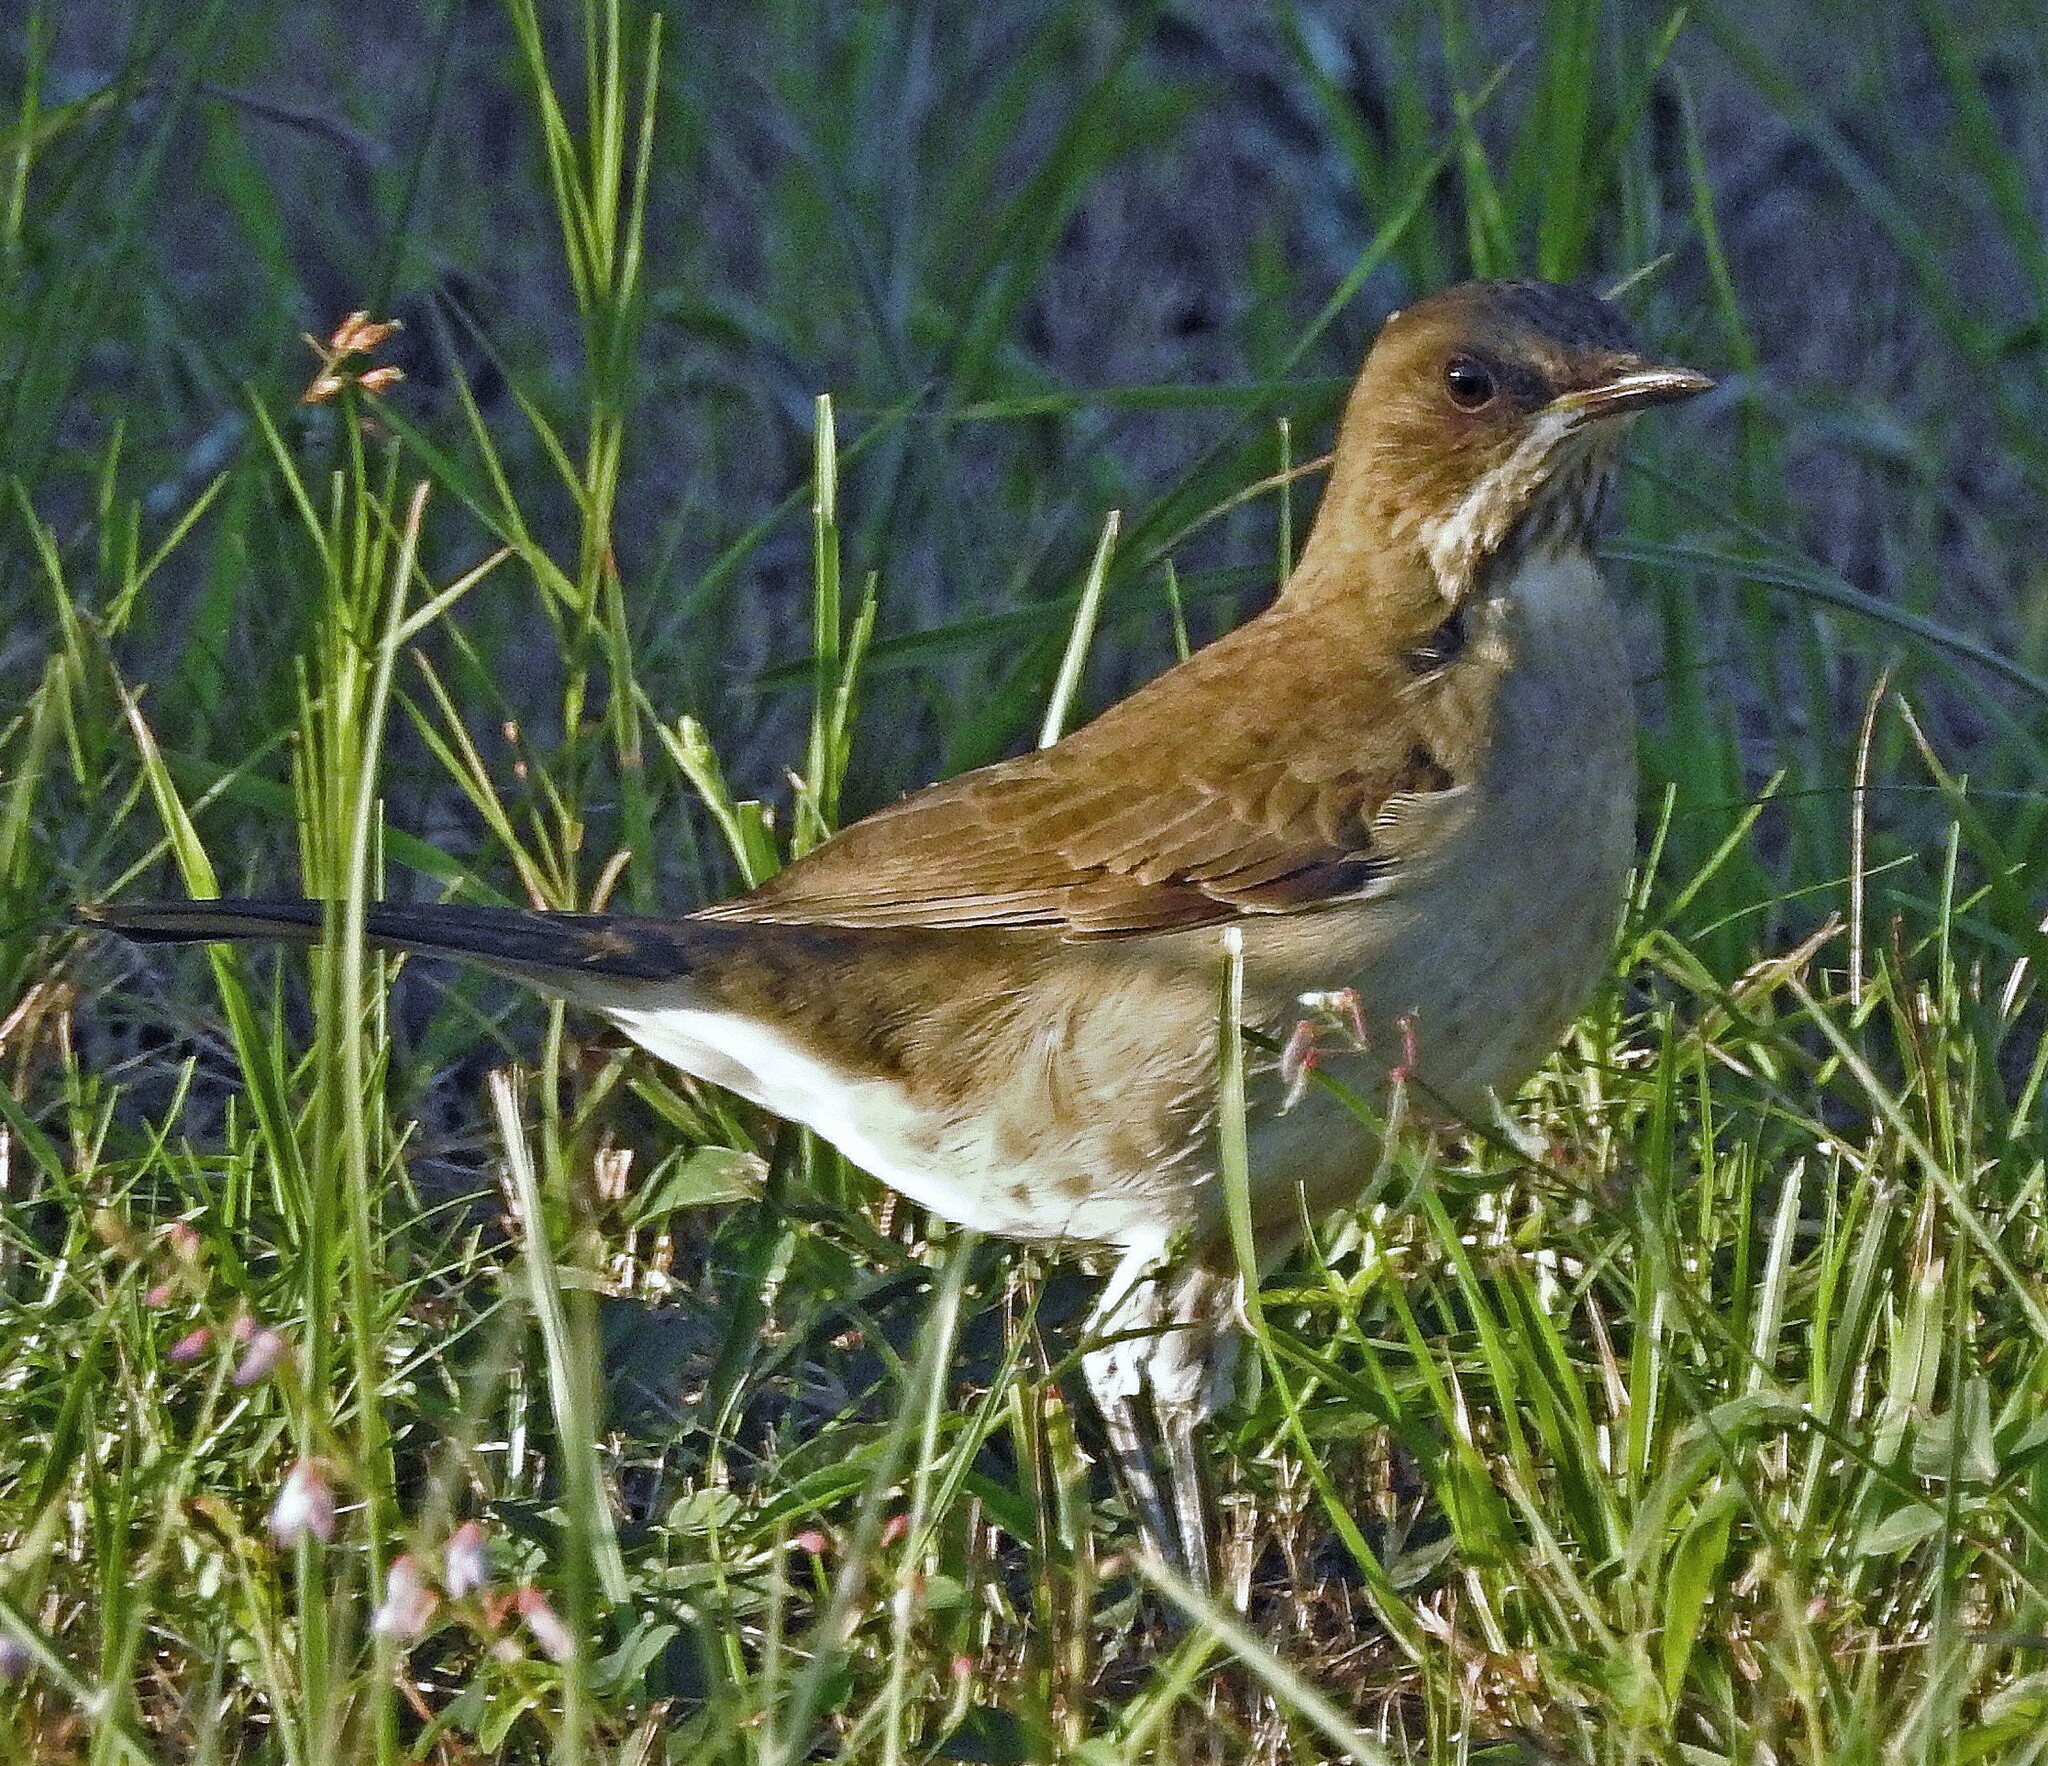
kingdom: Animalia
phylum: Chordata
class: Aves
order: Passeriformes
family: Turdidae
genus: Turdus
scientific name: Turdus amaurochalinus
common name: Creamy-bellied thrush
